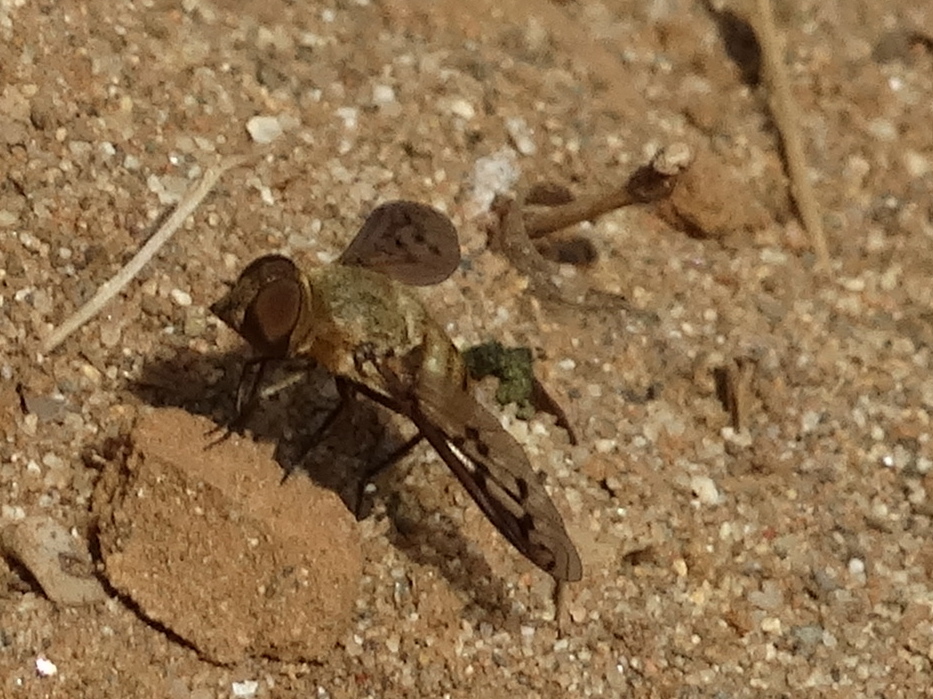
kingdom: Animalia
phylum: Arthropoda
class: Insecta
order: Diptera
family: Bombyliidae
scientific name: Bombyliidae
